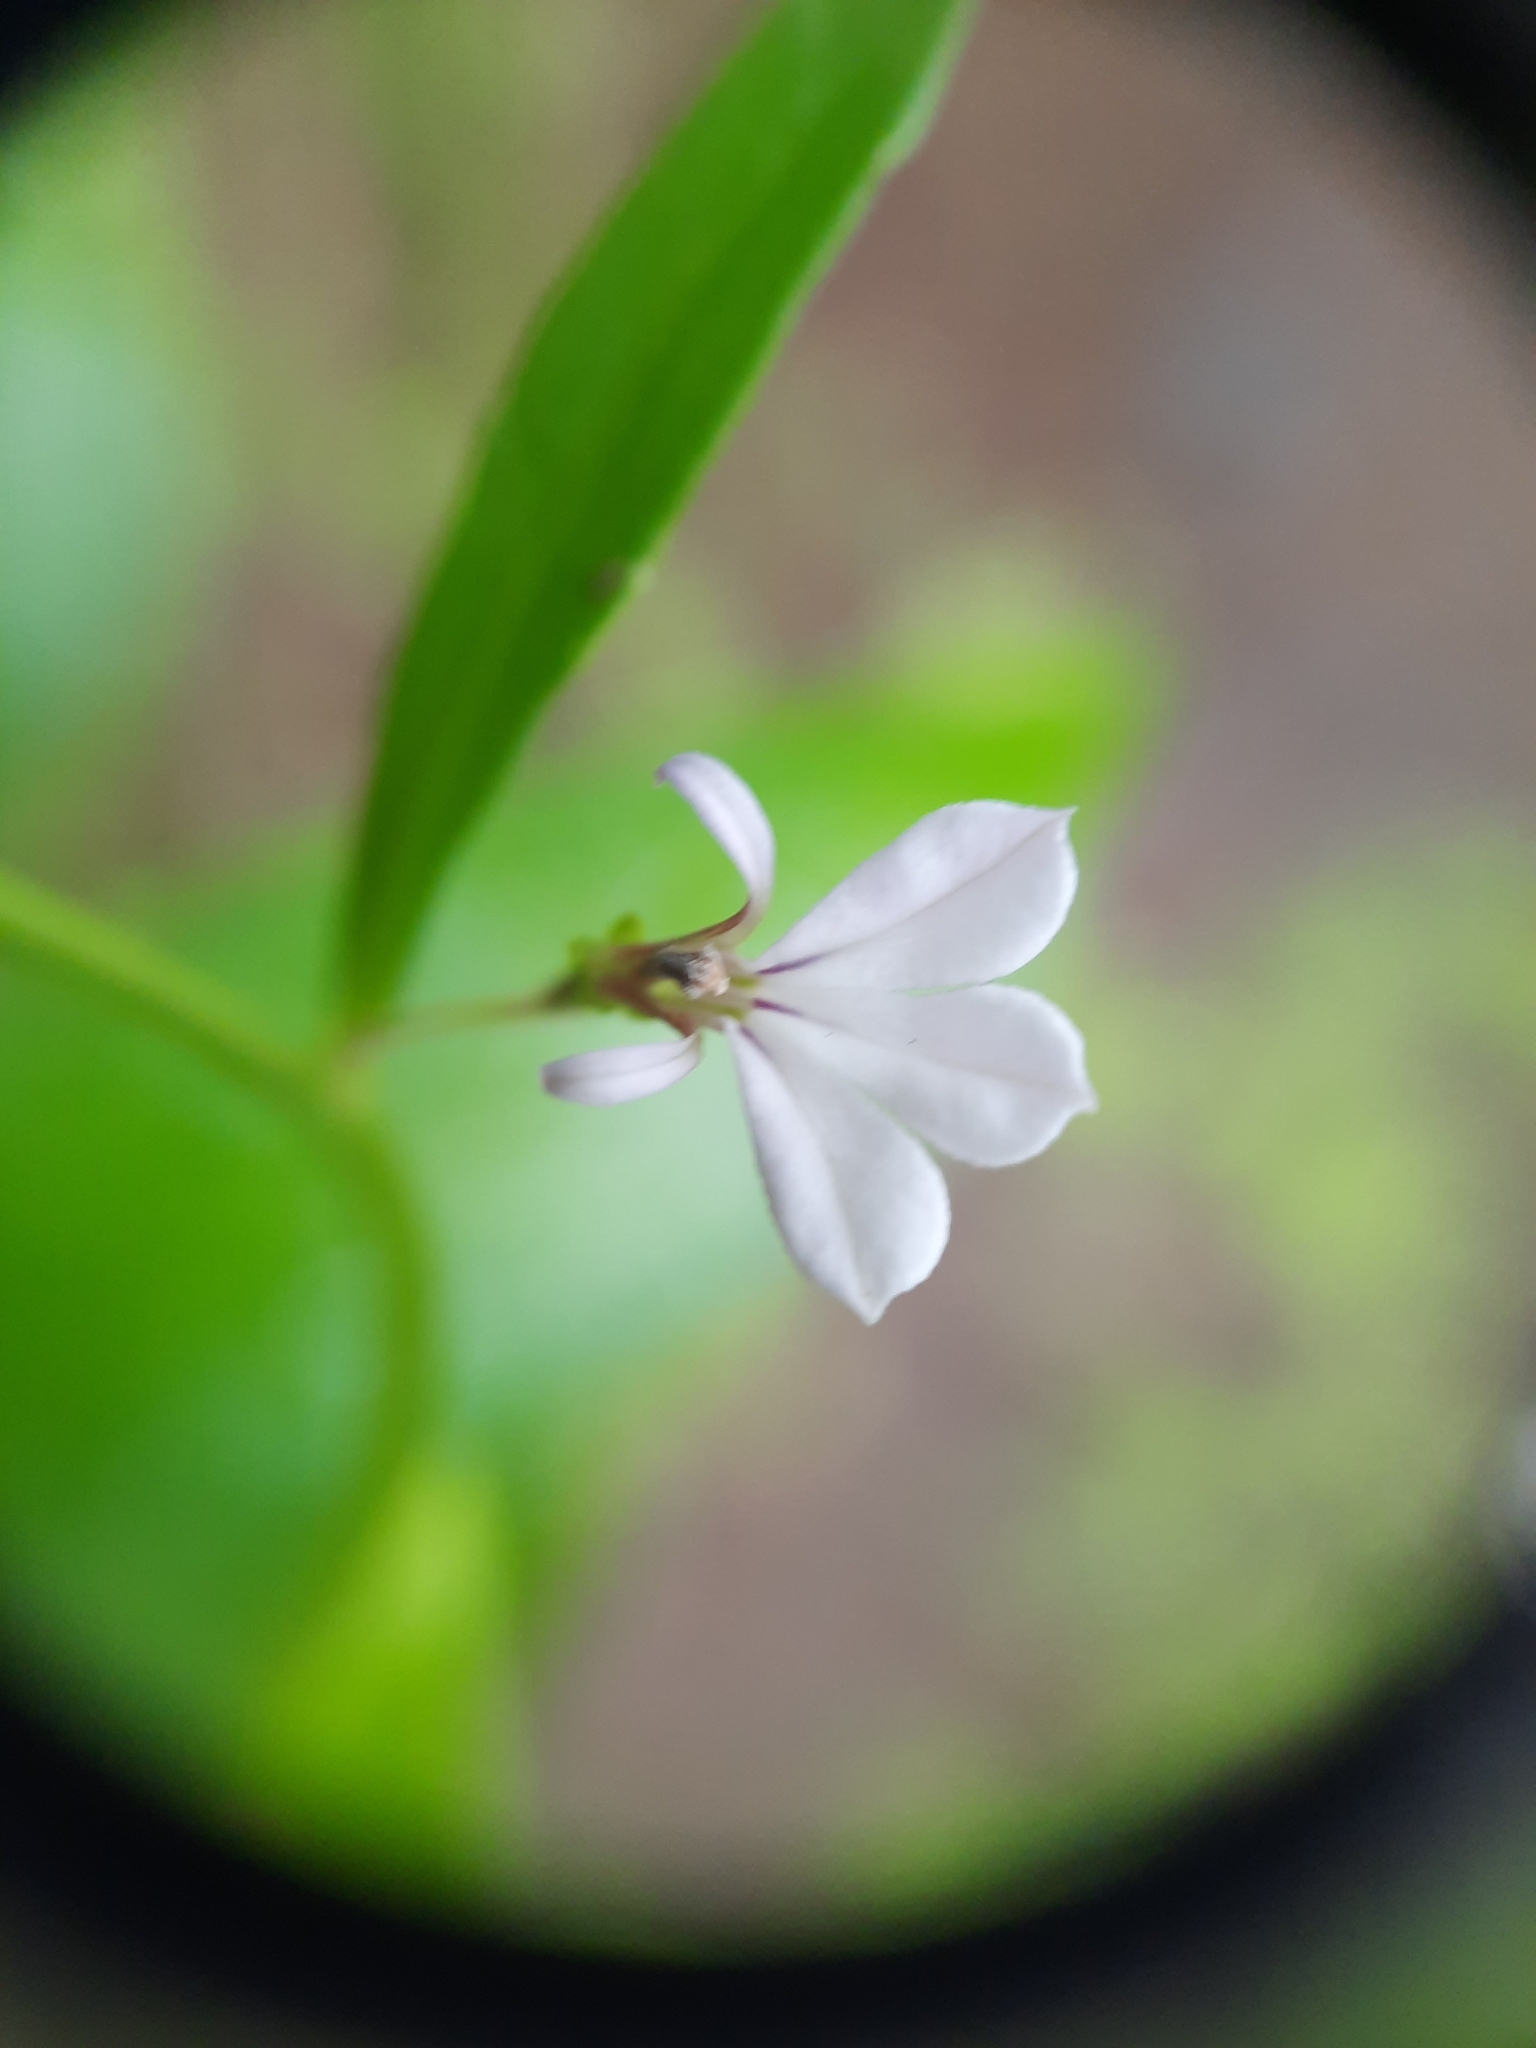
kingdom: Plantae
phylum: Tracheophyta
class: Magnoliopsida
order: Asterales
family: Campanulaceae
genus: Lobelia
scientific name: Lobelia anceps
